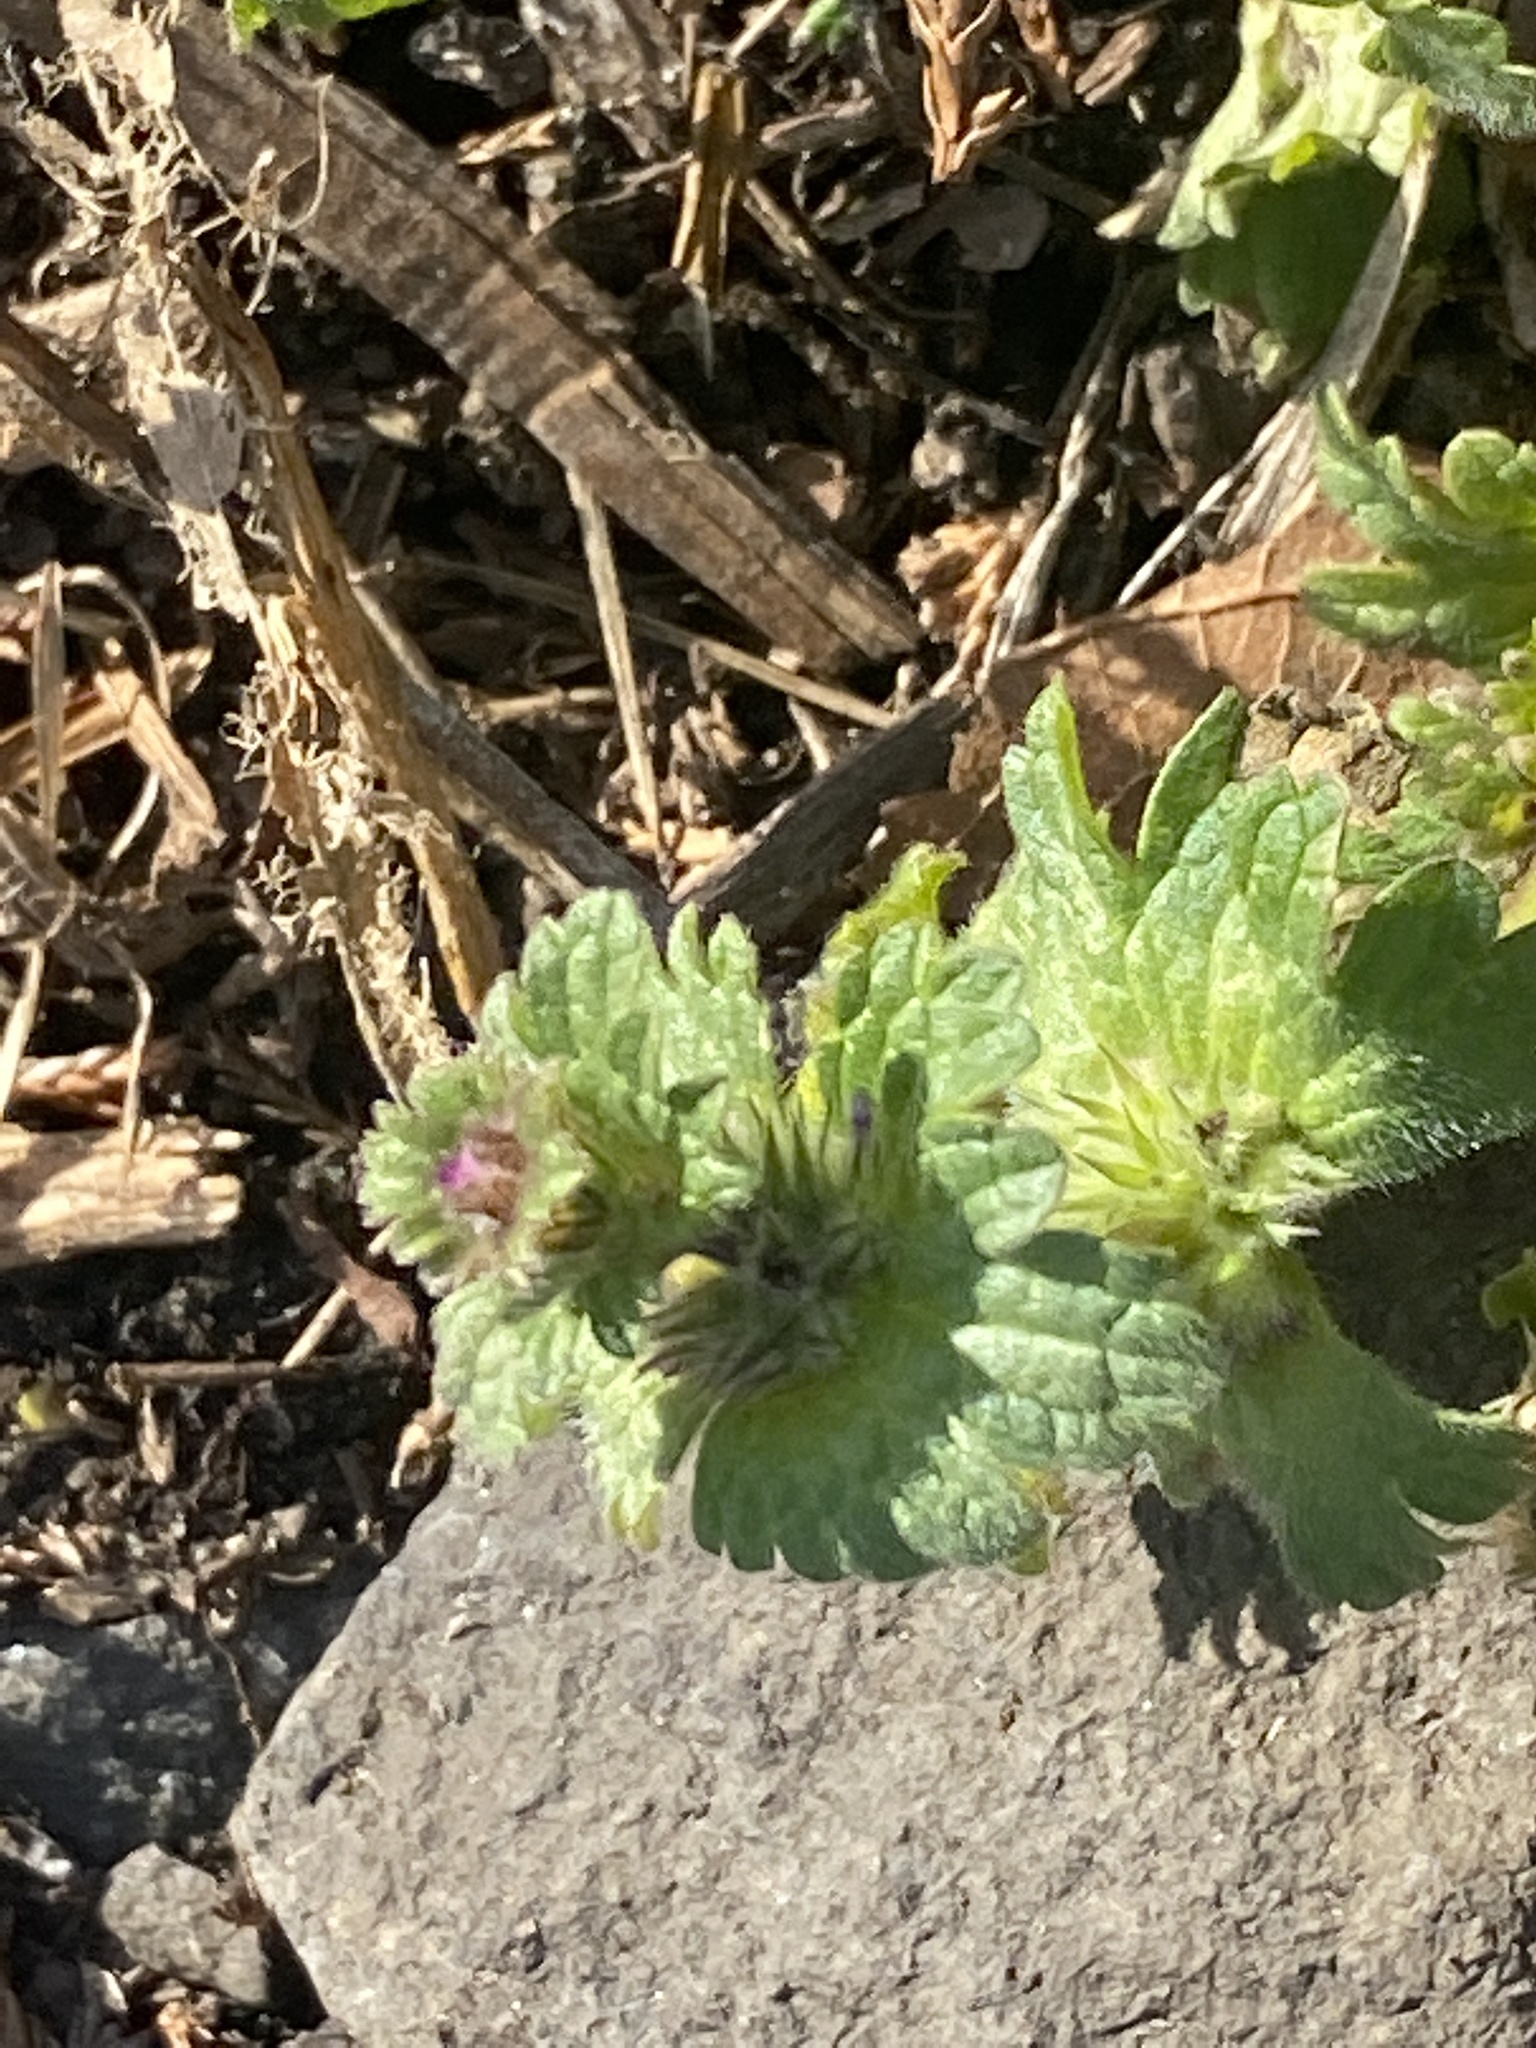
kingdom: Plantae
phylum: Tracheophyta
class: Magnoliopsida
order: Lamiales
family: Lamiaceae
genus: Lamium
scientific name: Lamium amplexicaule
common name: Henbit dead-nettle
